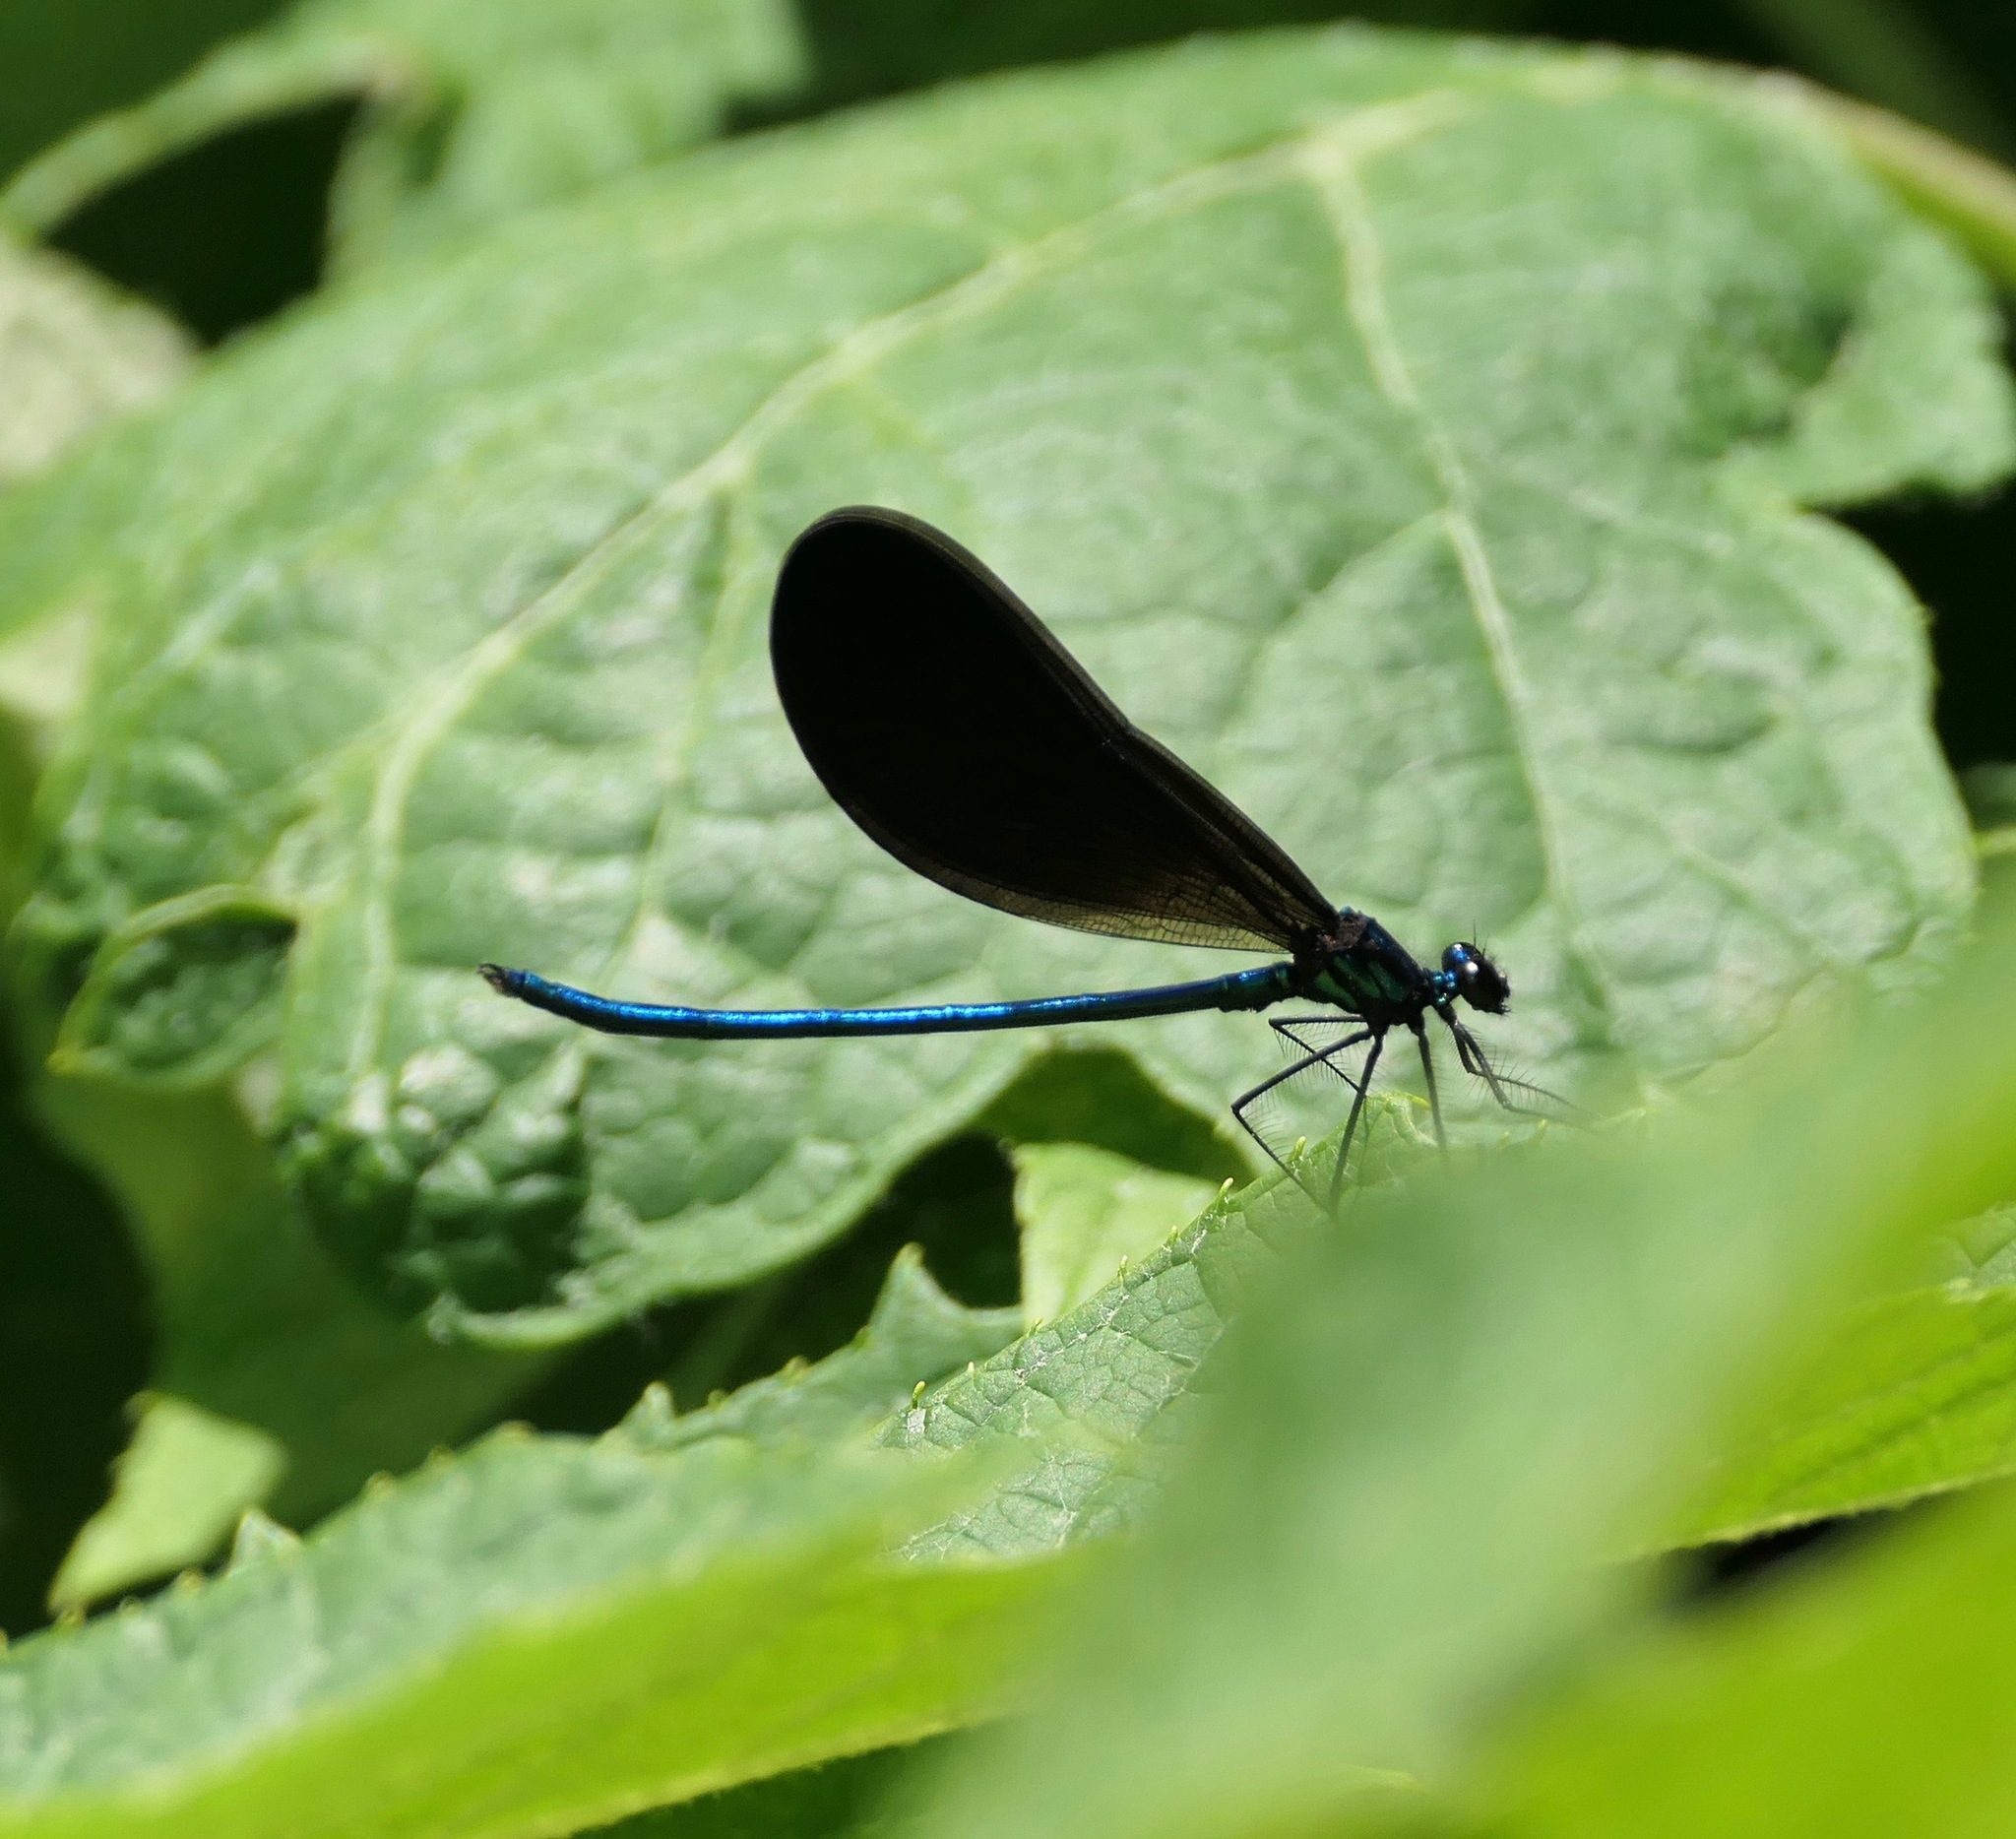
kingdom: Animalia
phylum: Arthropoda
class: Insecta
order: Odonata
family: Calopterygidae
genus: Calopteryx
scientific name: Calopteryx maculata
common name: Ebony jewelwing
